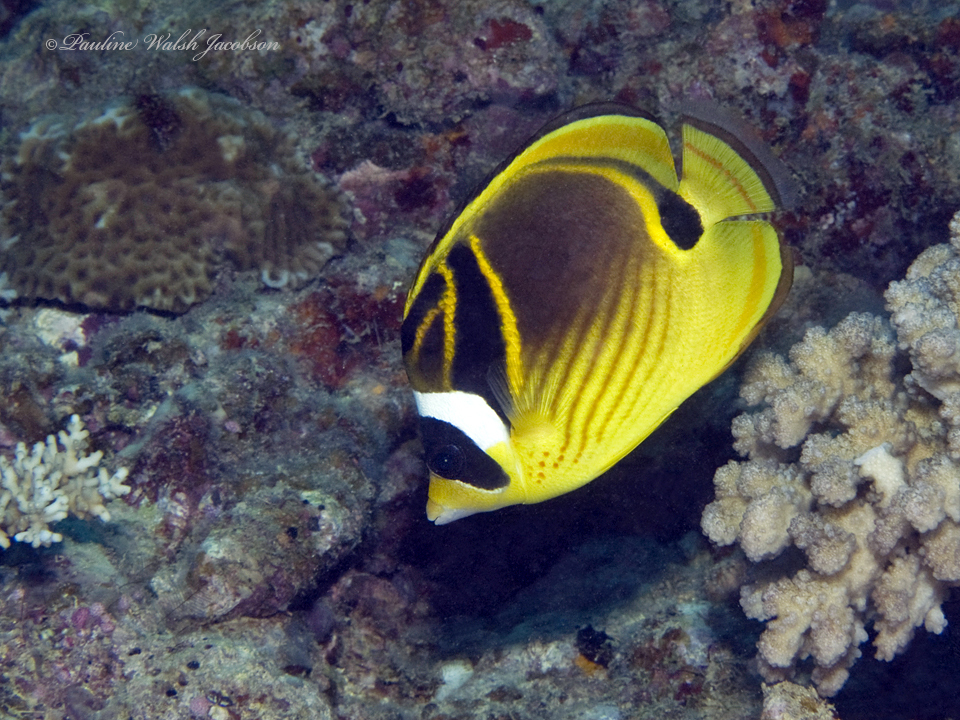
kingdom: Animalia
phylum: Chordata
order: Perciformes
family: Chaetodontidae
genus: Chaetodon
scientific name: Chaetodon lunula
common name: Raccoon butterflyfish
